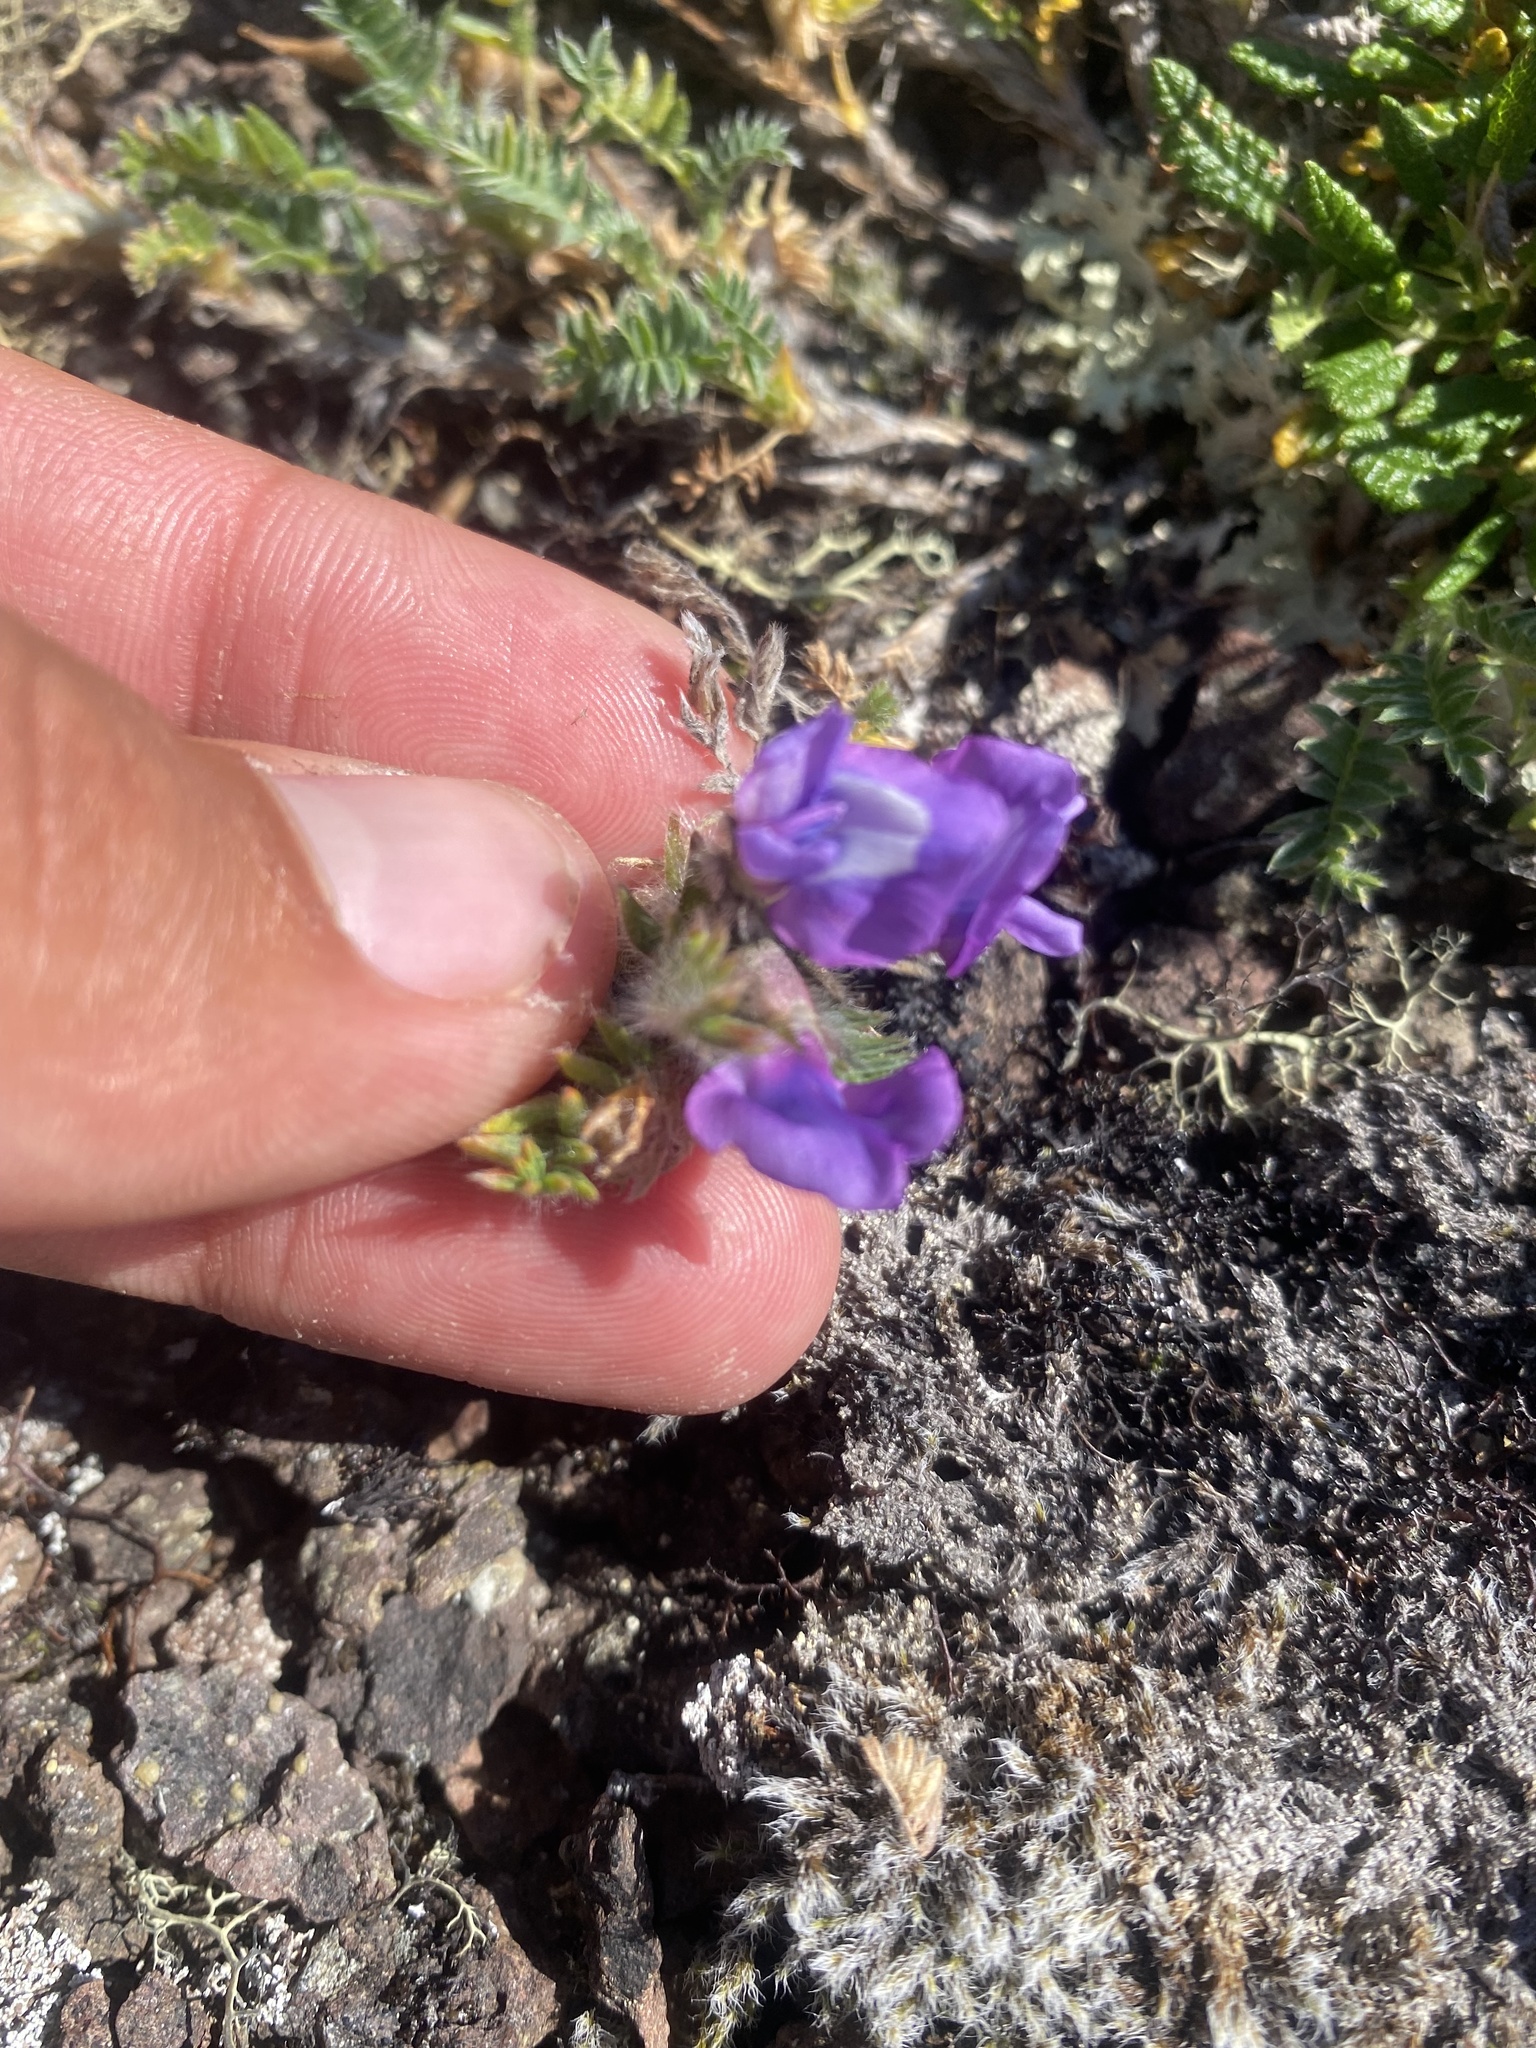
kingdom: Plantae
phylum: Tracheophyta
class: Magnoliopsida
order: Fabales
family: Fabaceae
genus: Oxytropis
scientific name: Oxytropis nigrescens
